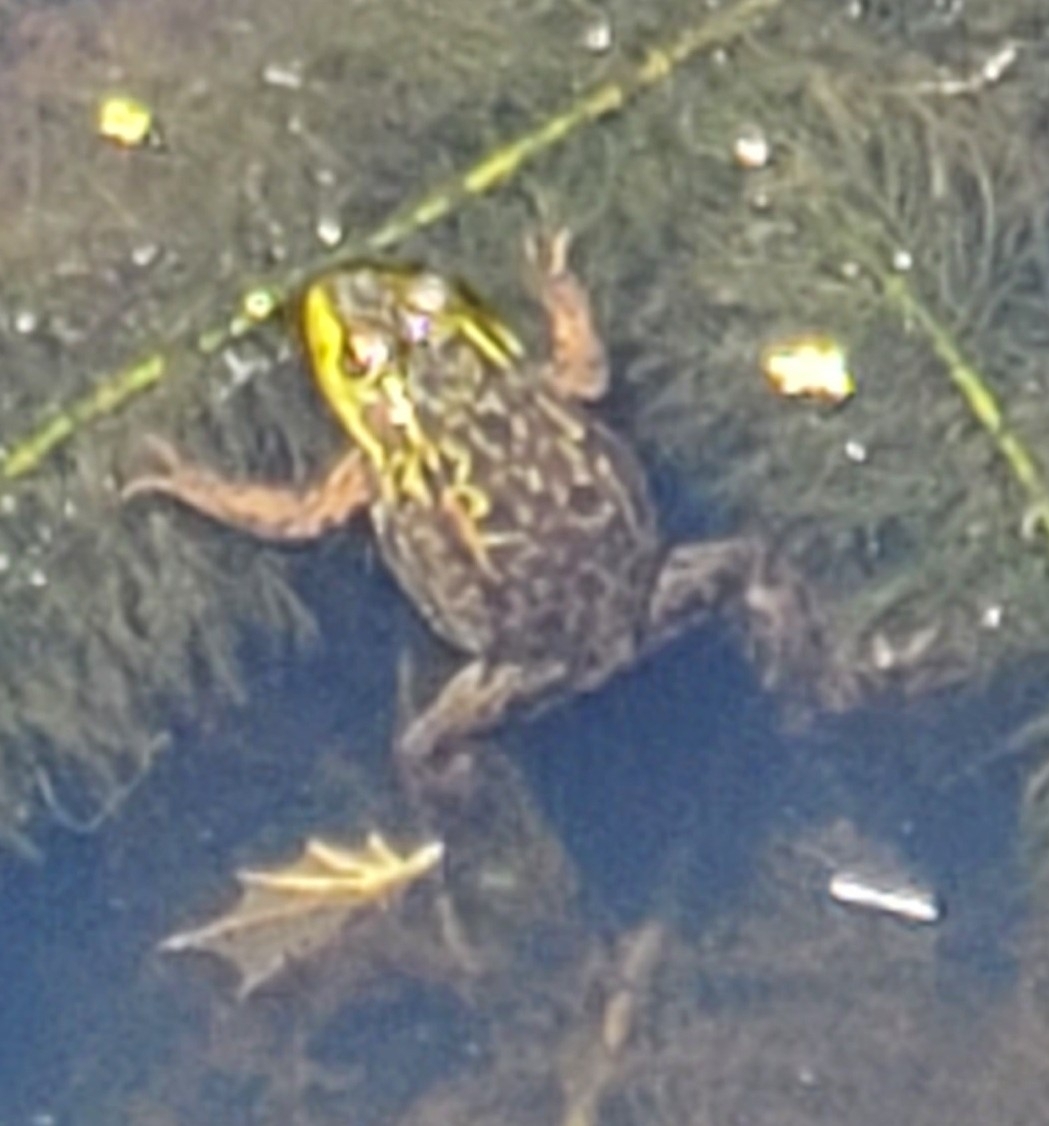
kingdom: Animalia
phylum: Chordata
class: Amphibia
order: Anura
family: Ranidae
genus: Lithobates
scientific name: Lithobates septentrionalis
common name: Mink frog
